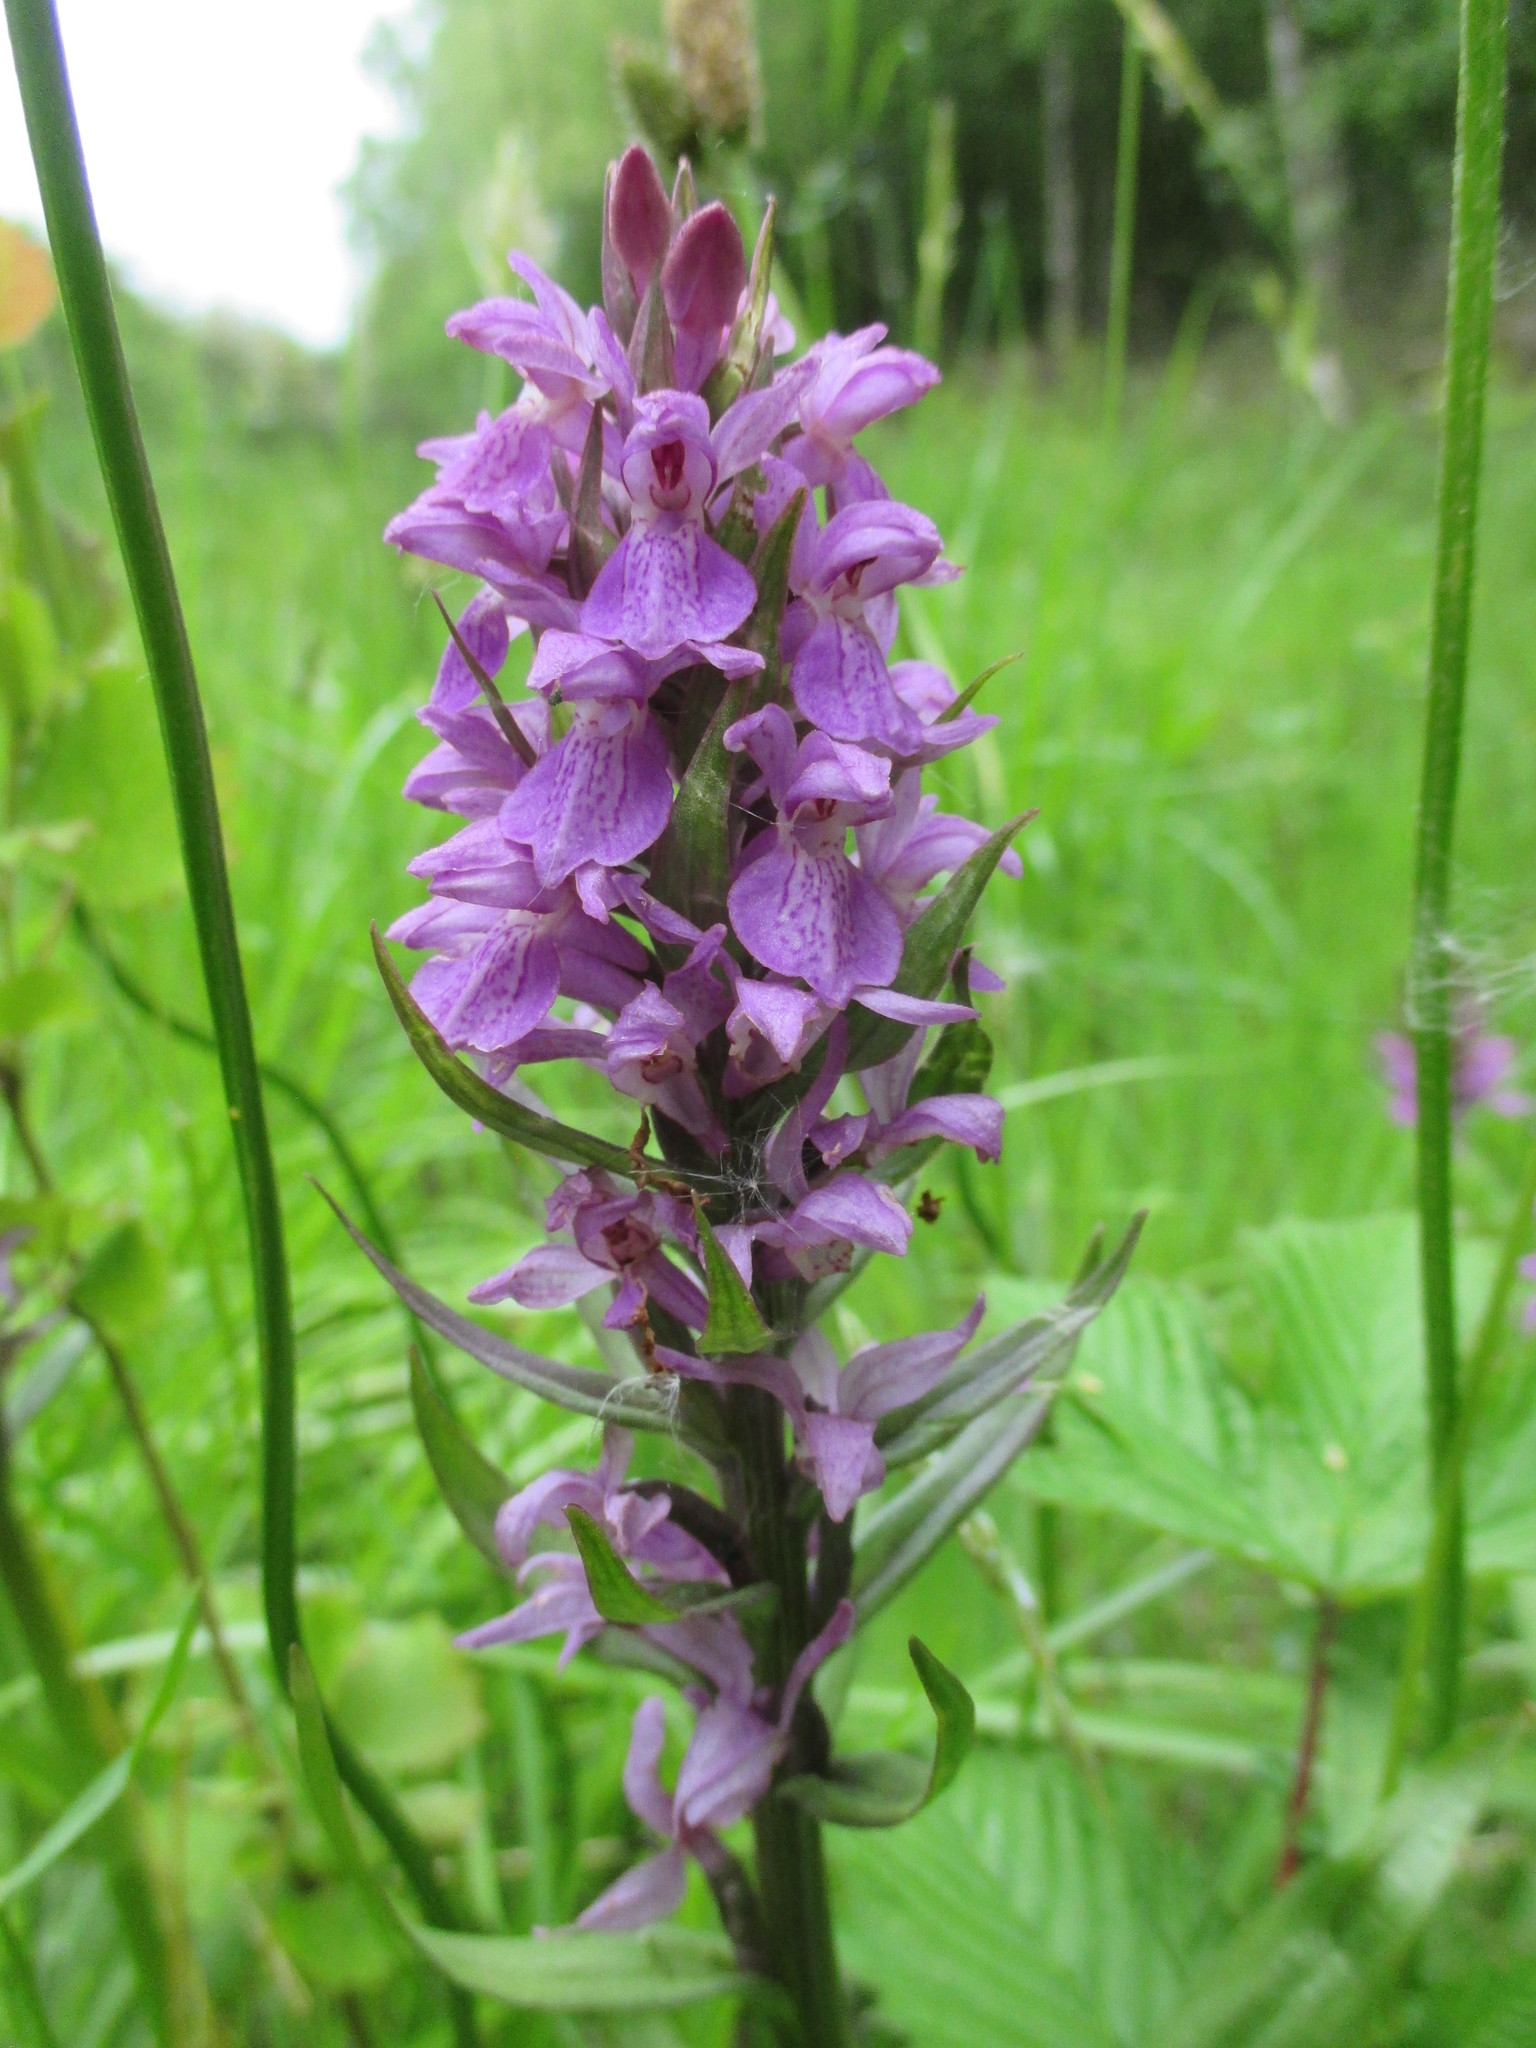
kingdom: Plantae
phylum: Tracheophyta
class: Liliopsida
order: Asparagales
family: Orchidaceae
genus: Dactylorhiza
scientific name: Dactylorhiza majalis
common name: Marsh orchid
